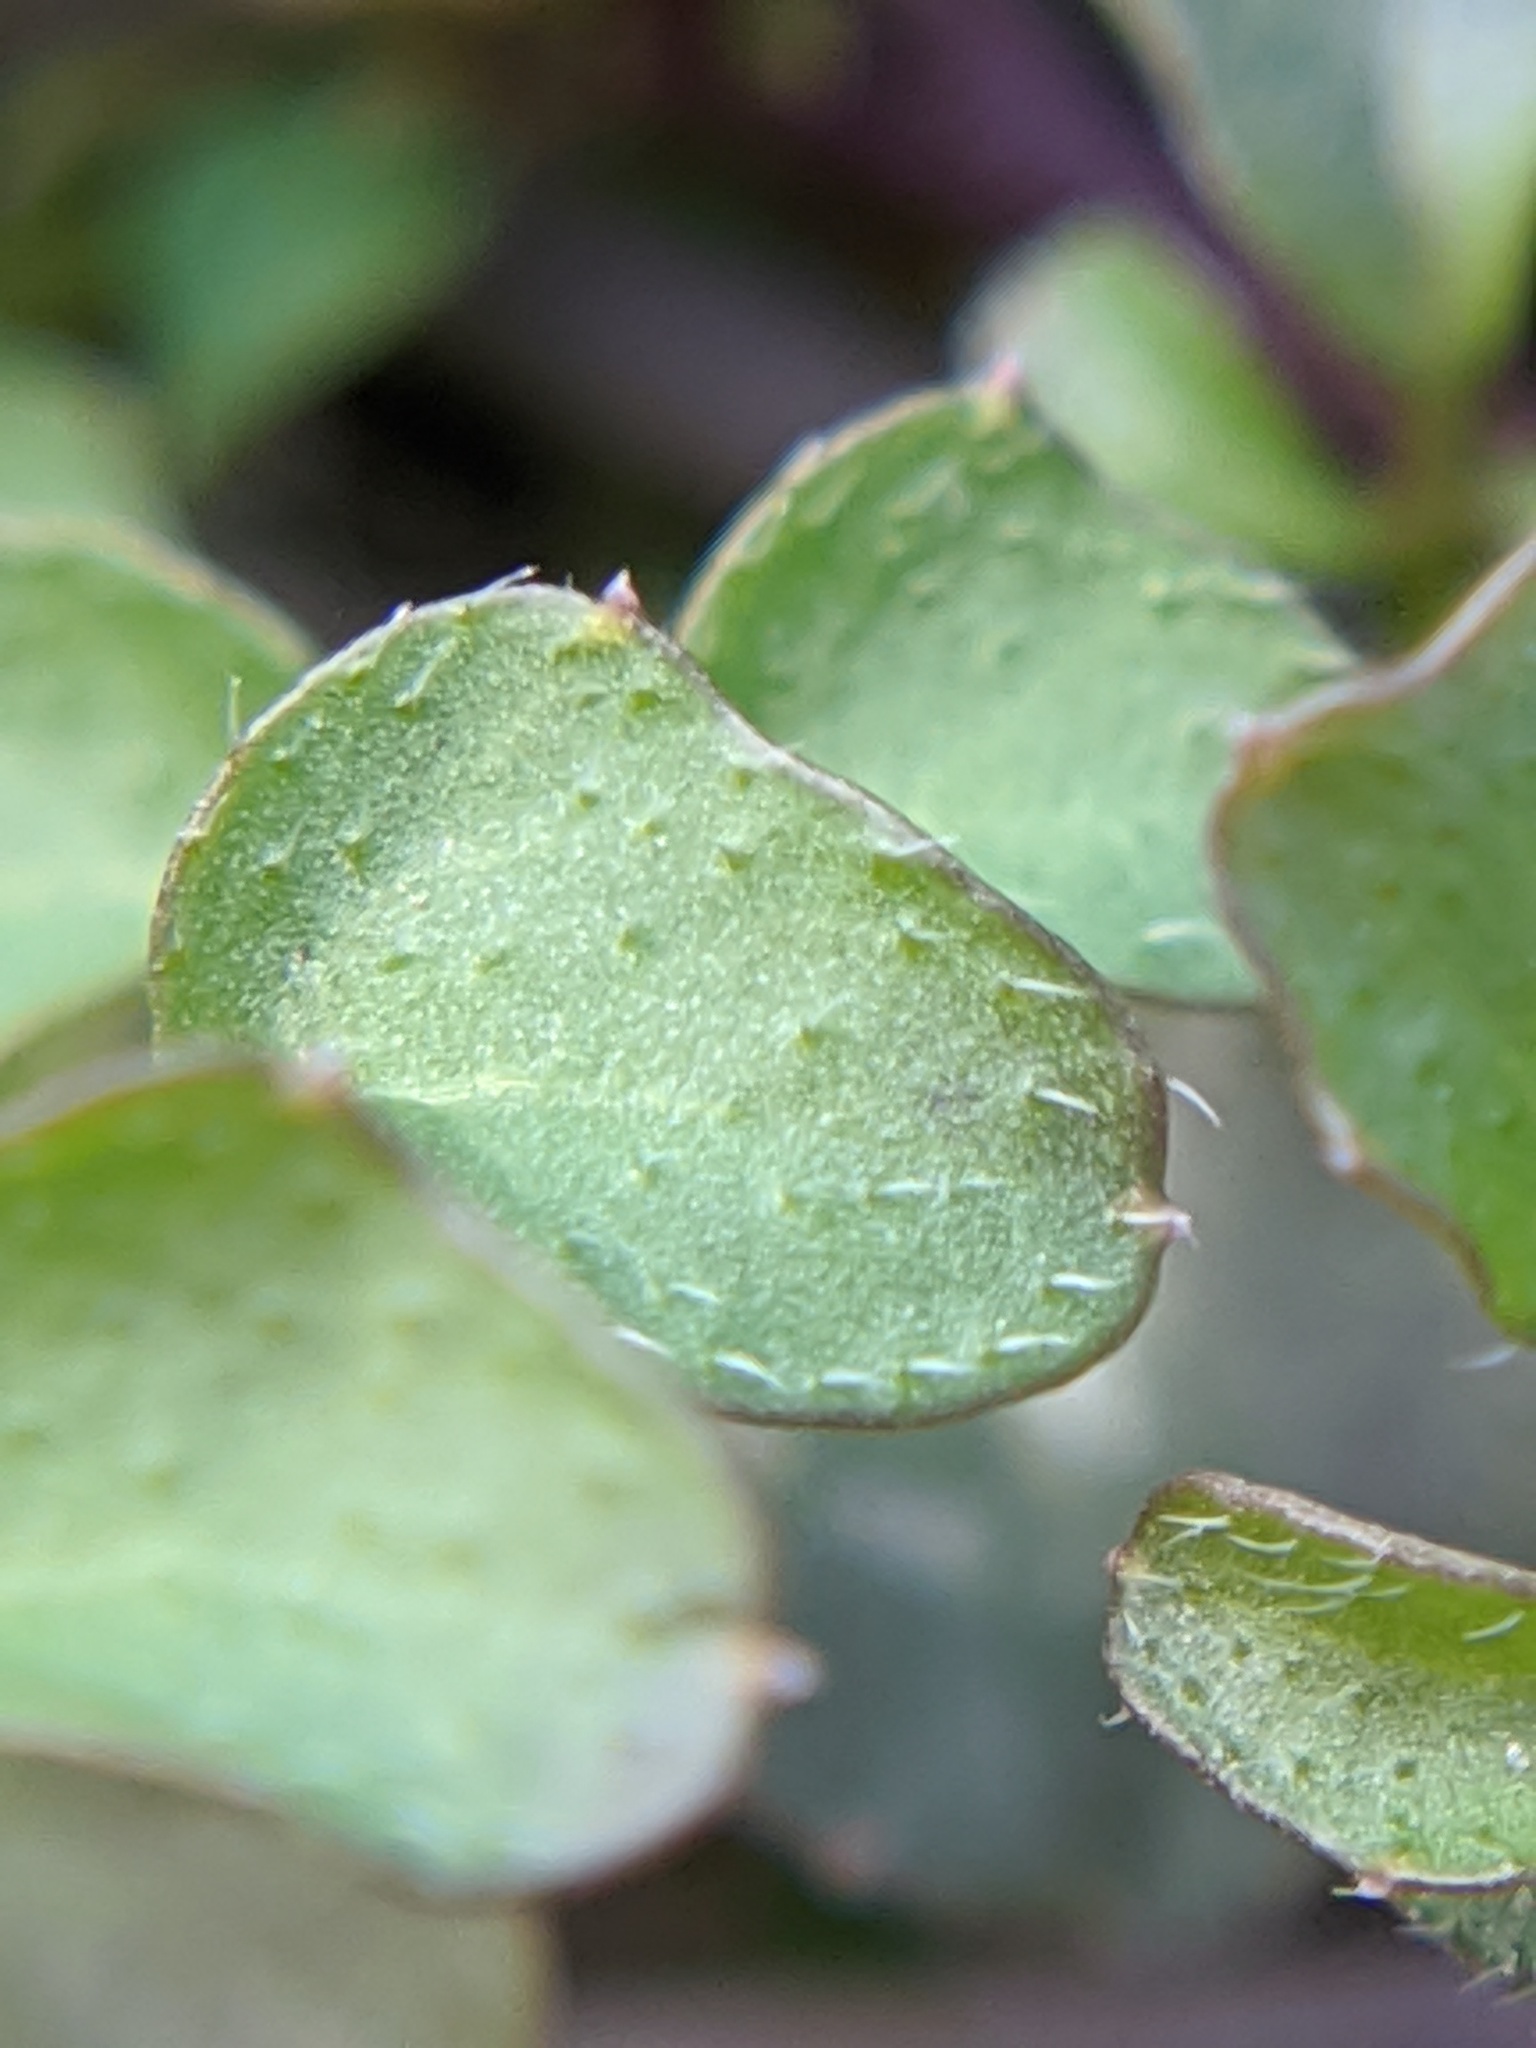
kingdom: Plantae
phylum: Tracheophyta
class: Magnoliopsida
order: Brassicales
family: Brassicaceae
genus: Cardamine
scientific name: Cardamine hirsuta
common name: Hairy bittercress
